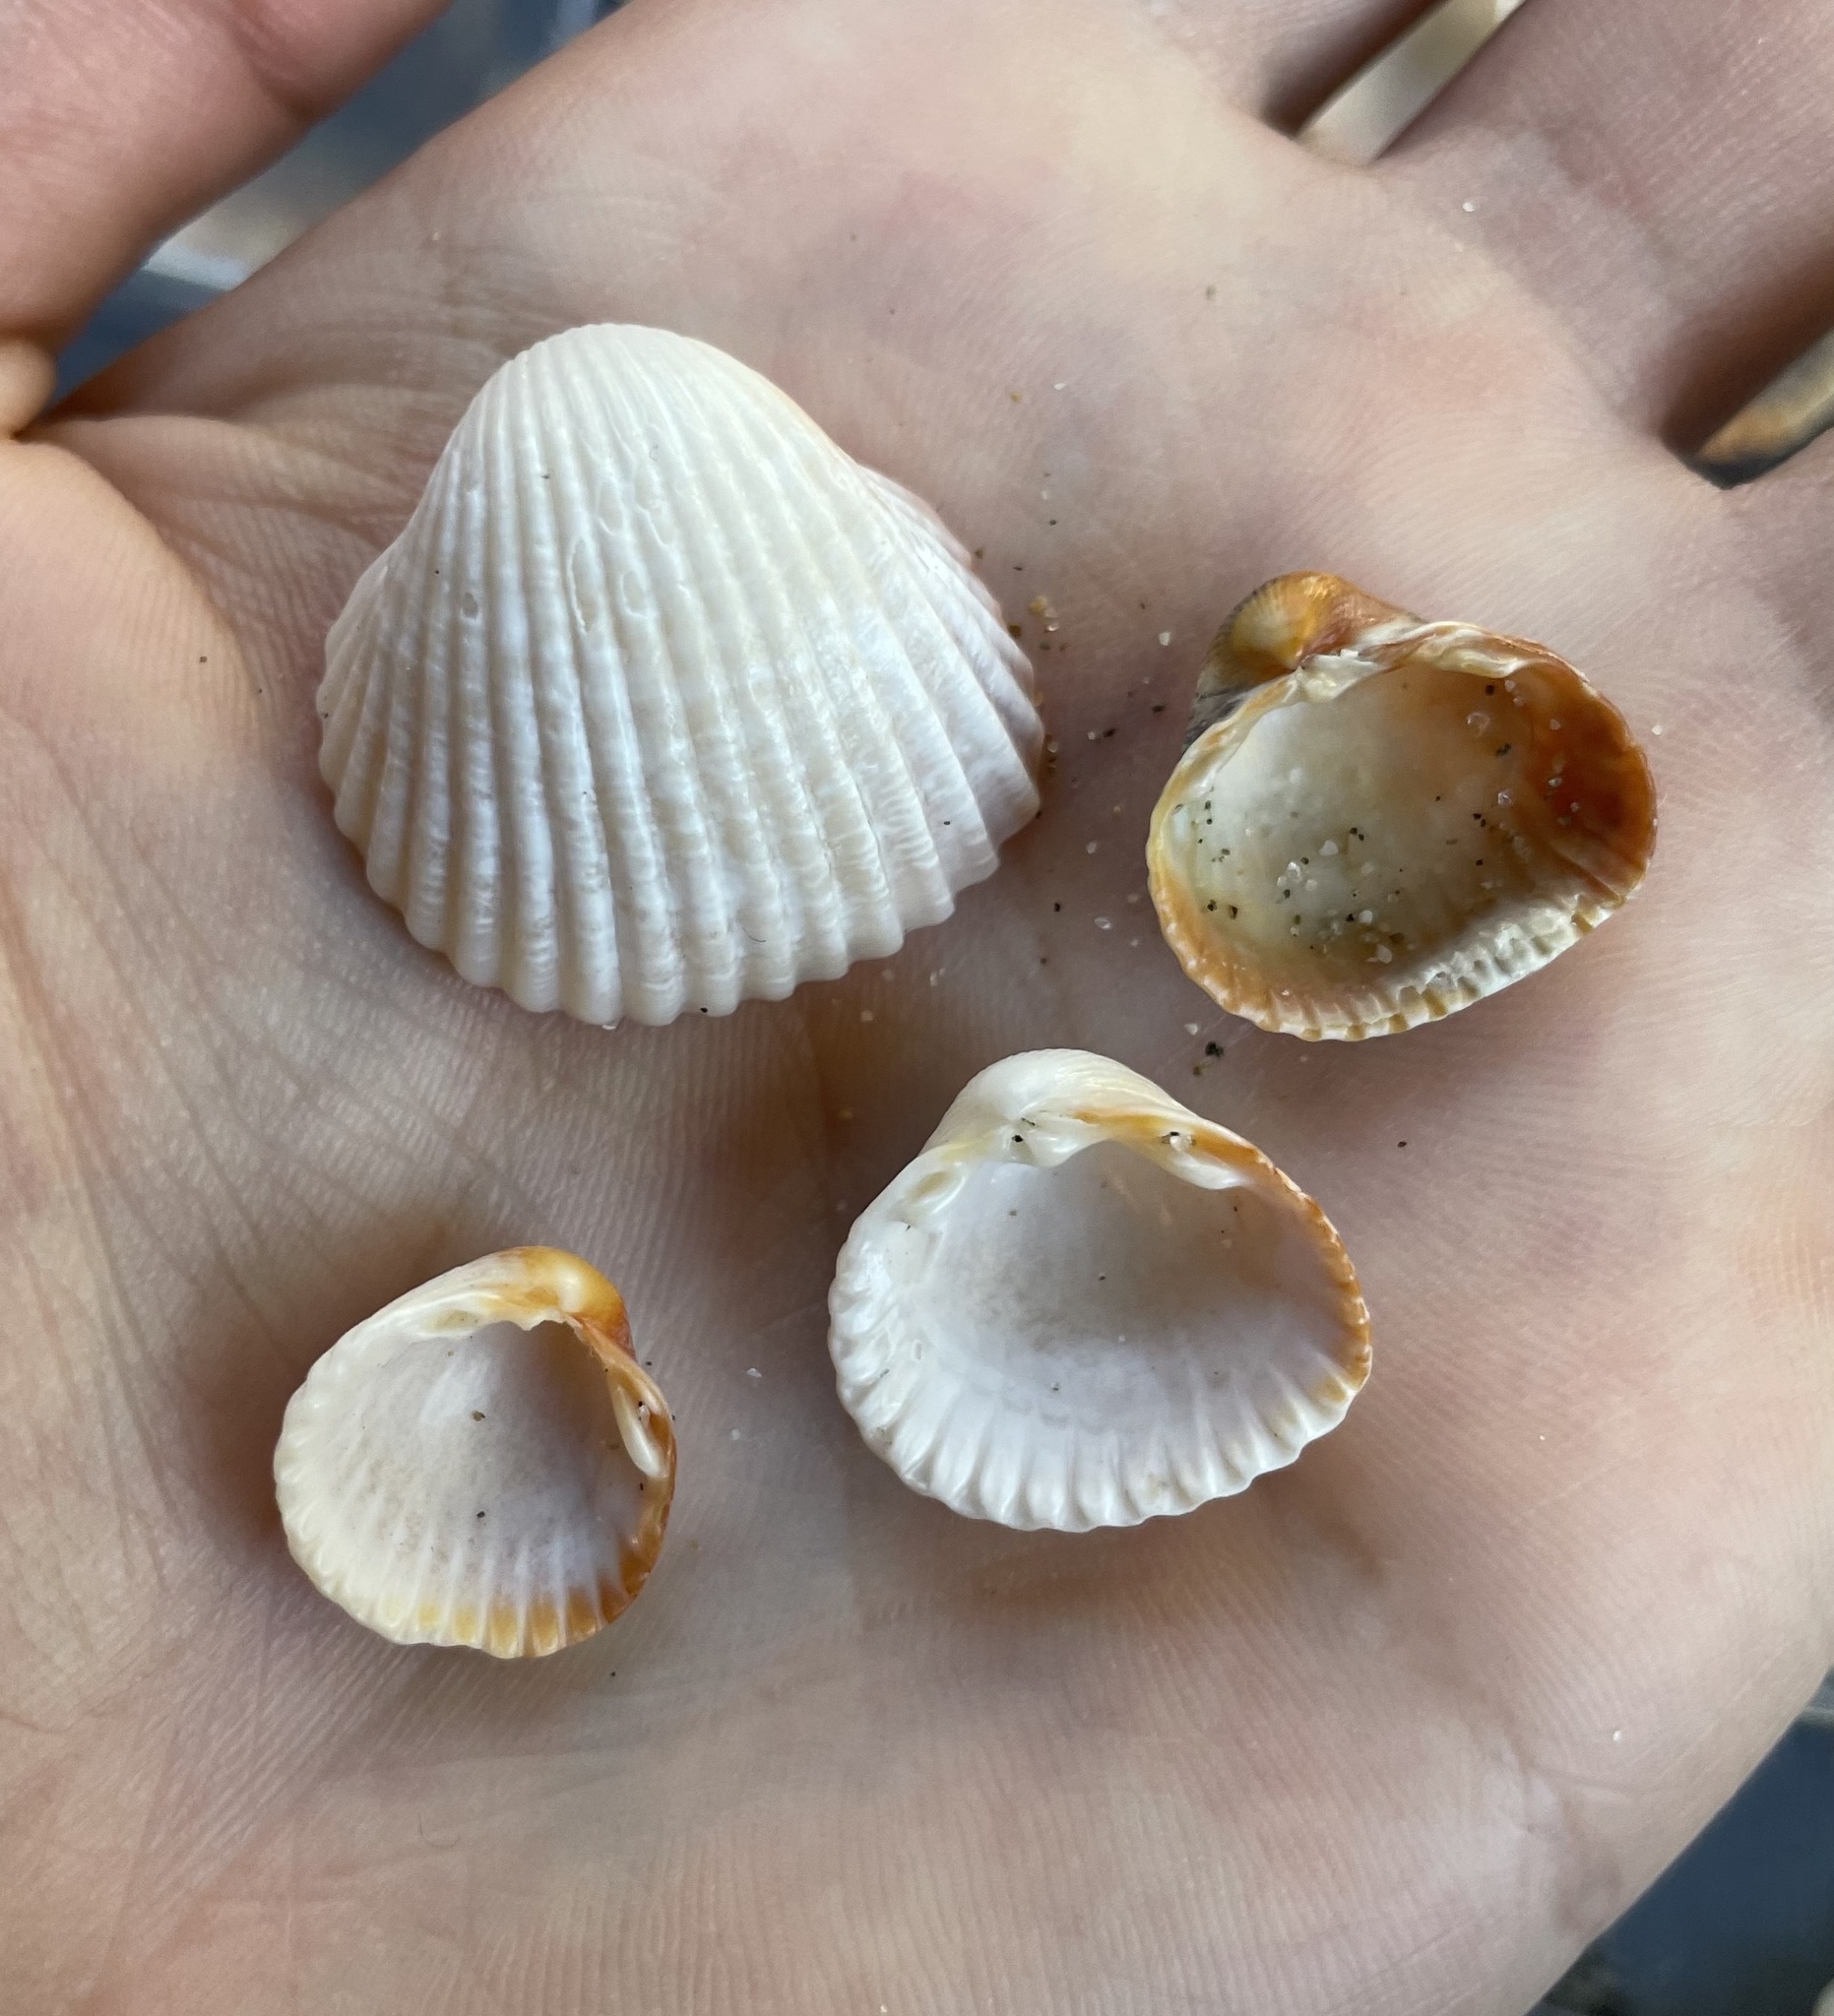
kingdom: Animalia
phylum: Mollusca
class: Bivalvia
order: Cardiida
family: Cardiidae
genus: Cerastoderma
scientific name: Cerastoderma glaucum
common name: Lagoon cockle
